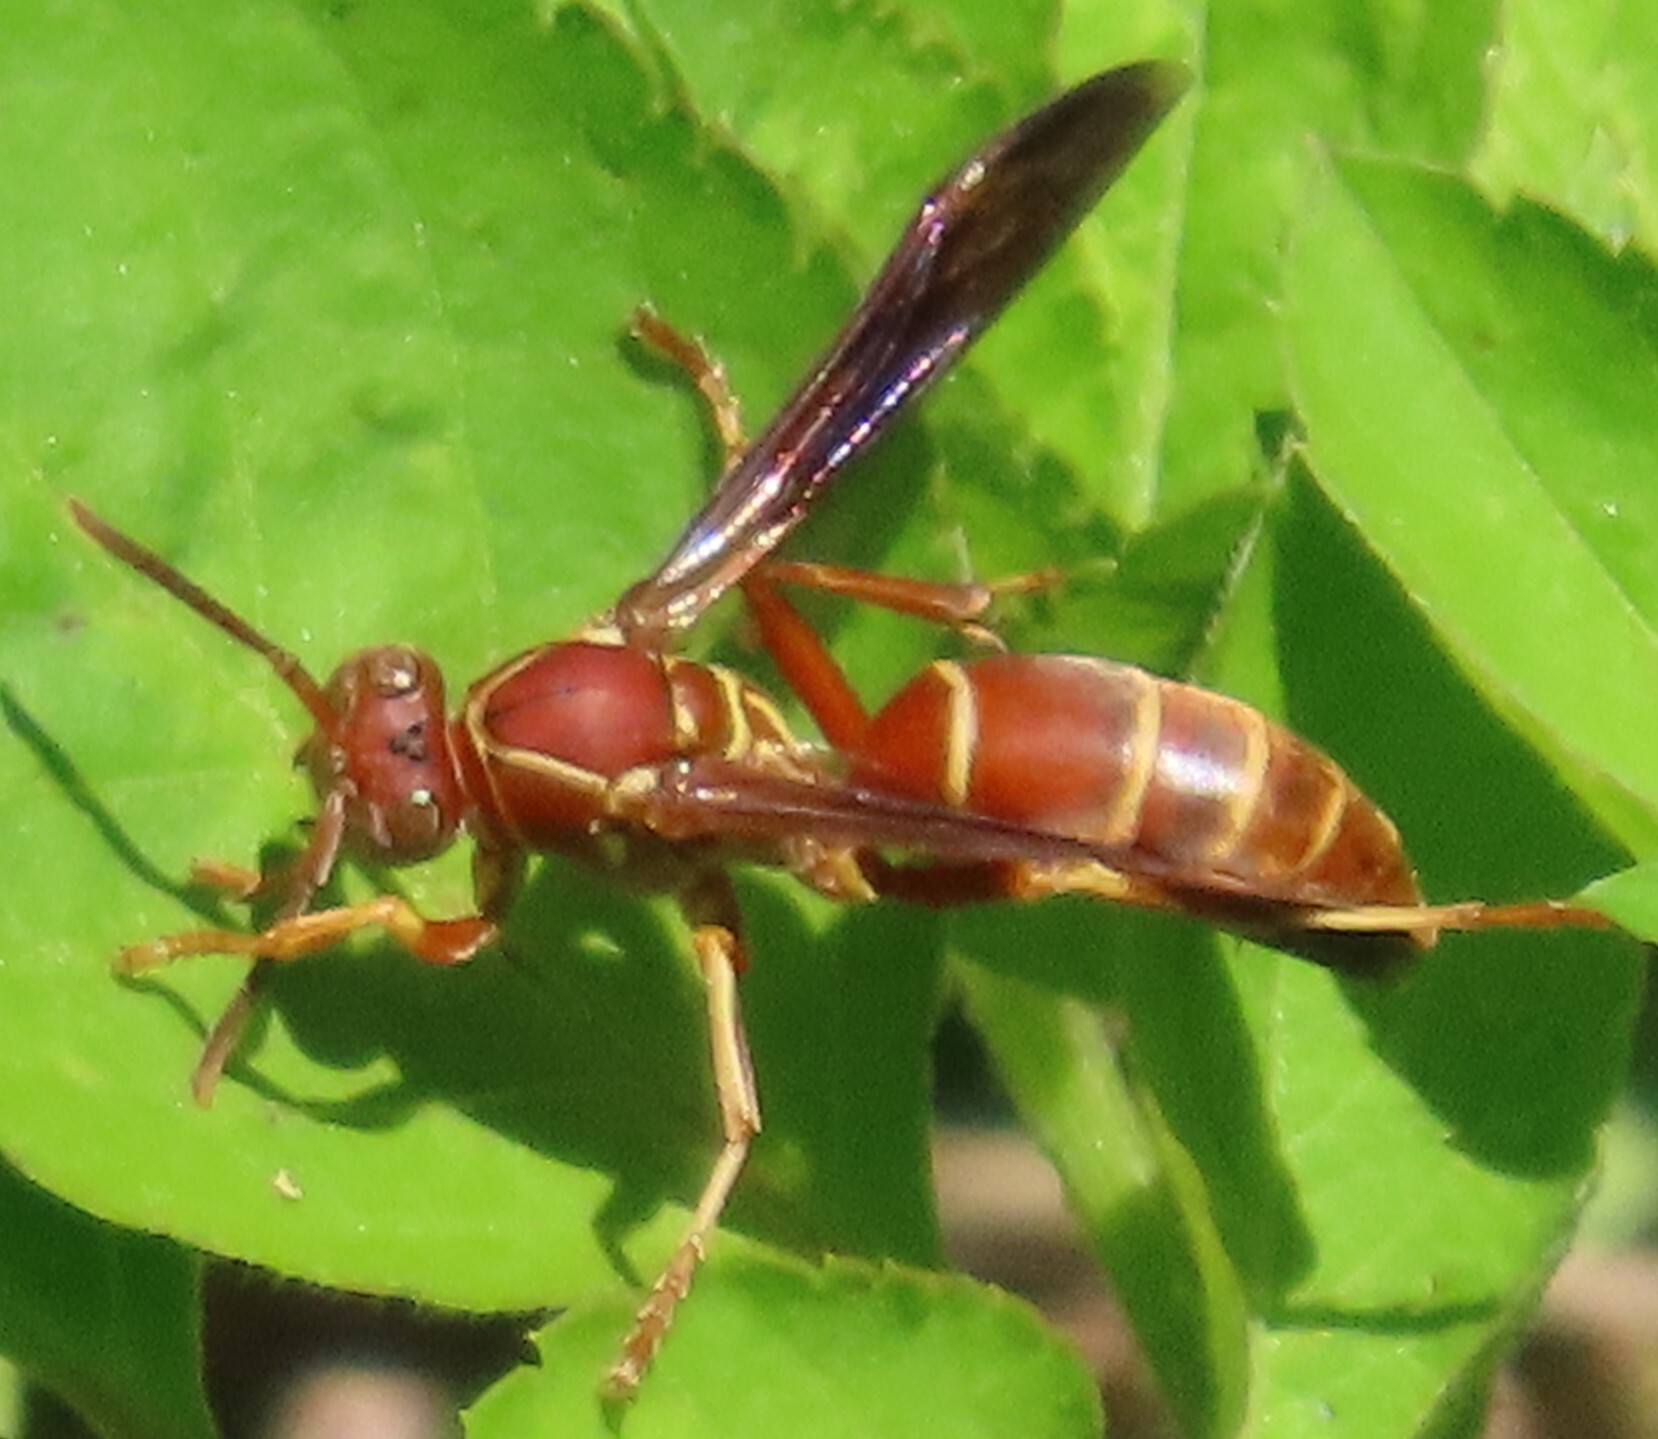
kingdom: Animalia
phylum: Arthropoda
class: Insecta
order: Hymenoptera
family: Eumenidae
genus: Polistes
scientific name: Polistes bellicosus
